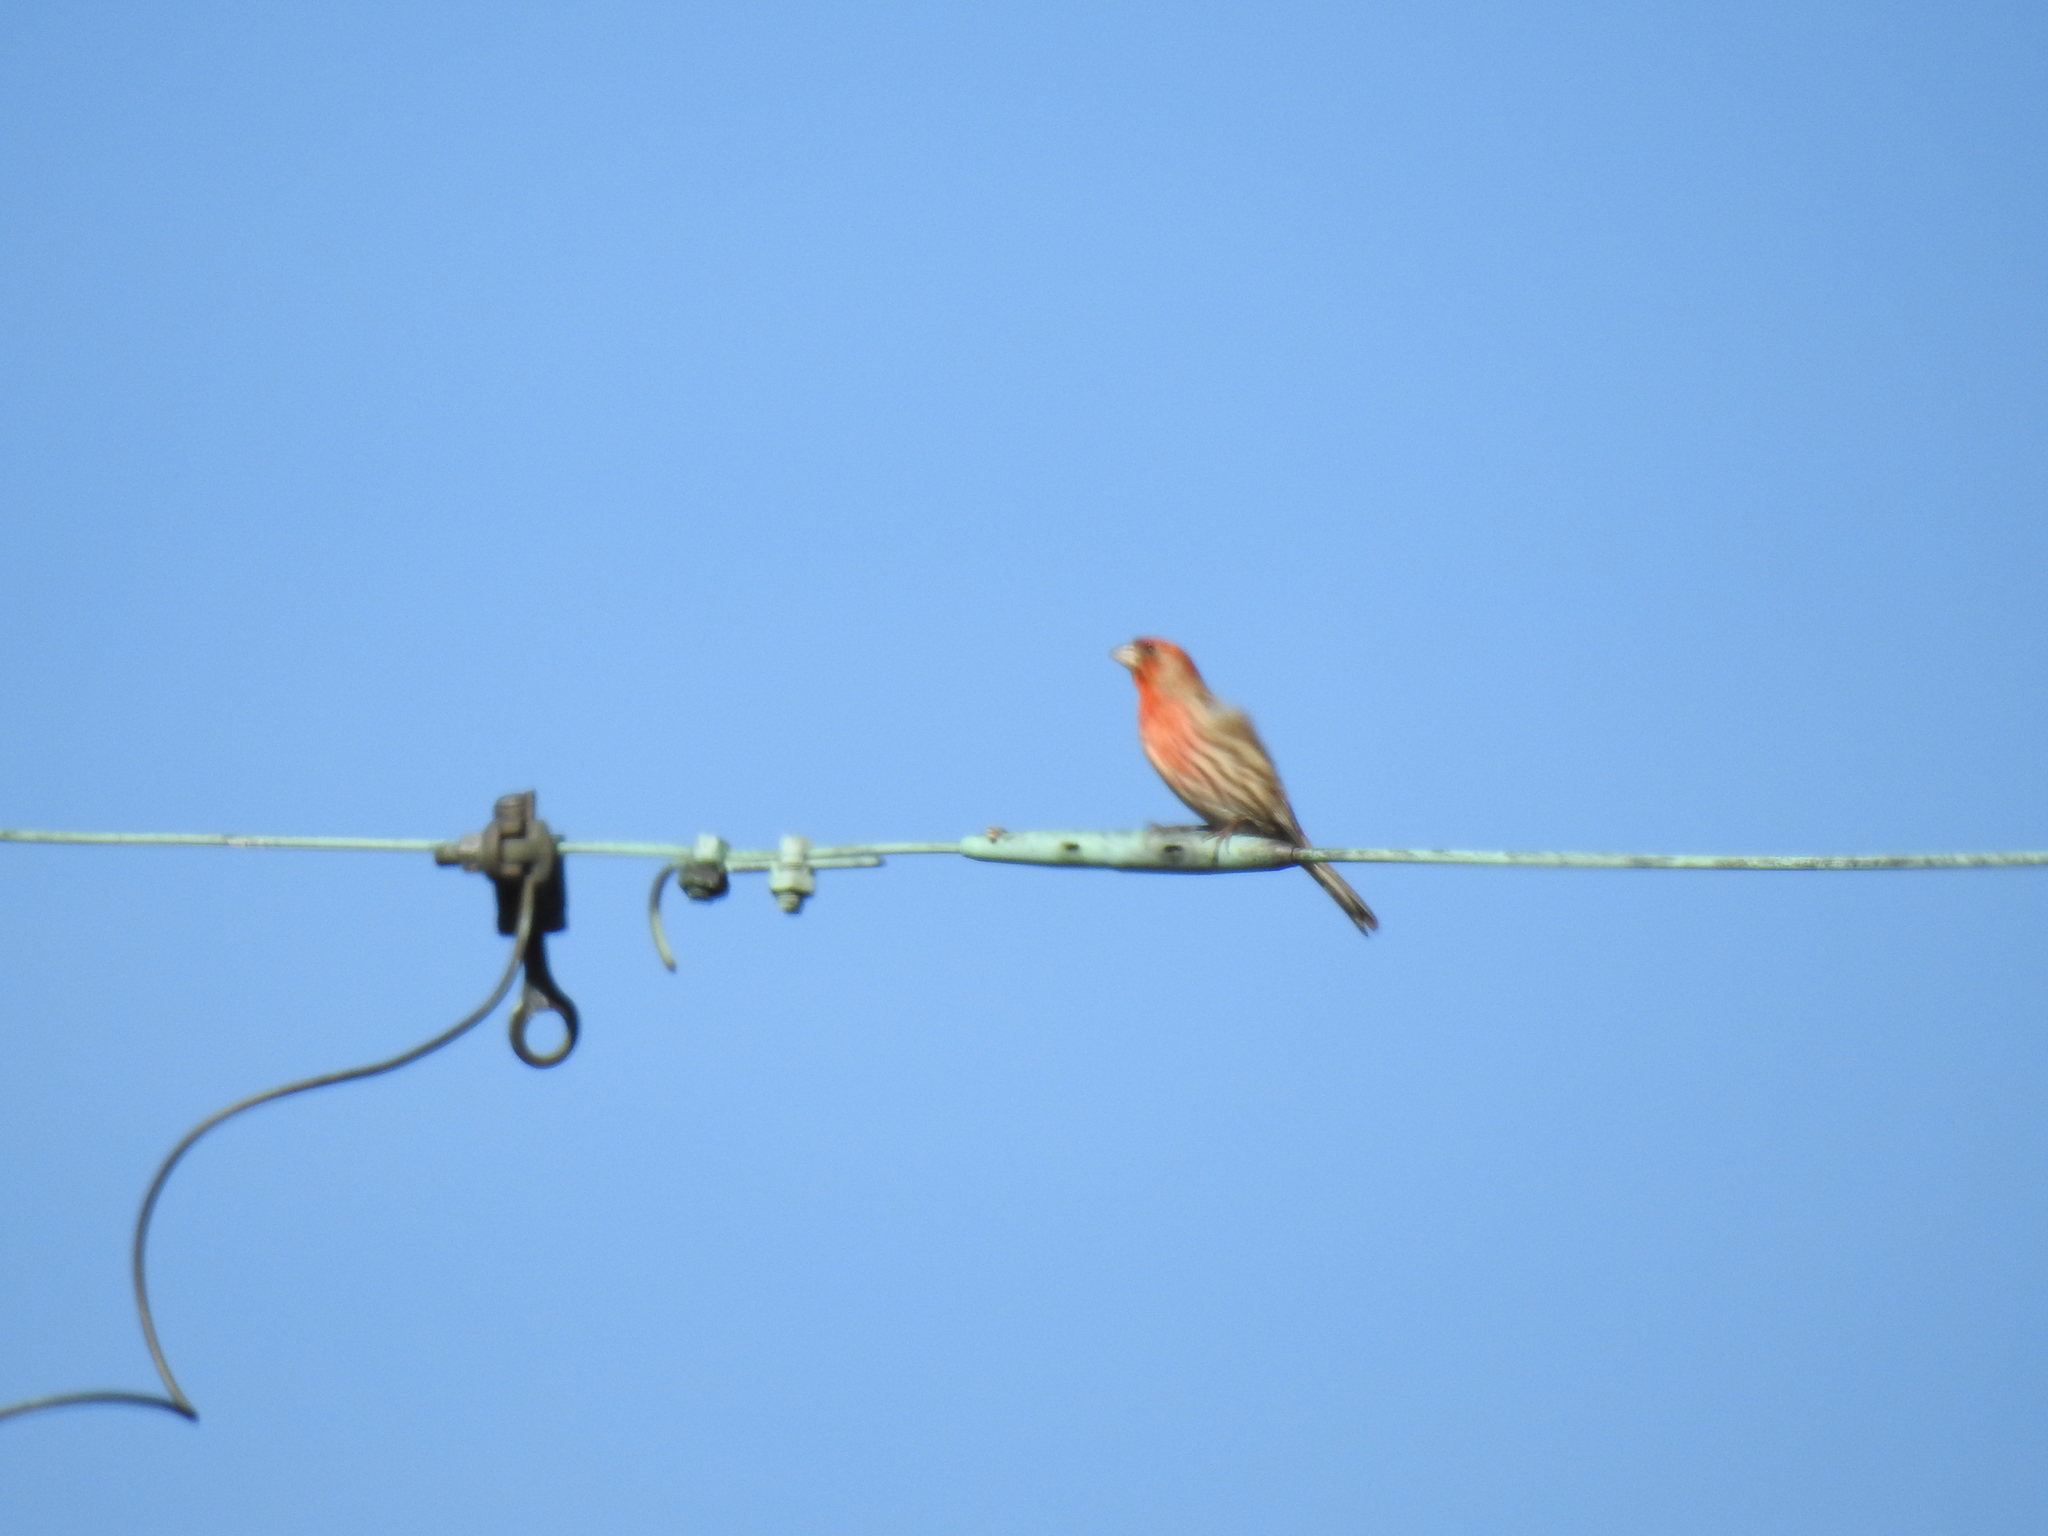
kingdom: Animalia
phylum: Chordata
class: Aves
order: Passeriformes
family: Fringillidae
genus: Haemorhous
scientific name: Haemorhous mexicanus
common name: House finch
